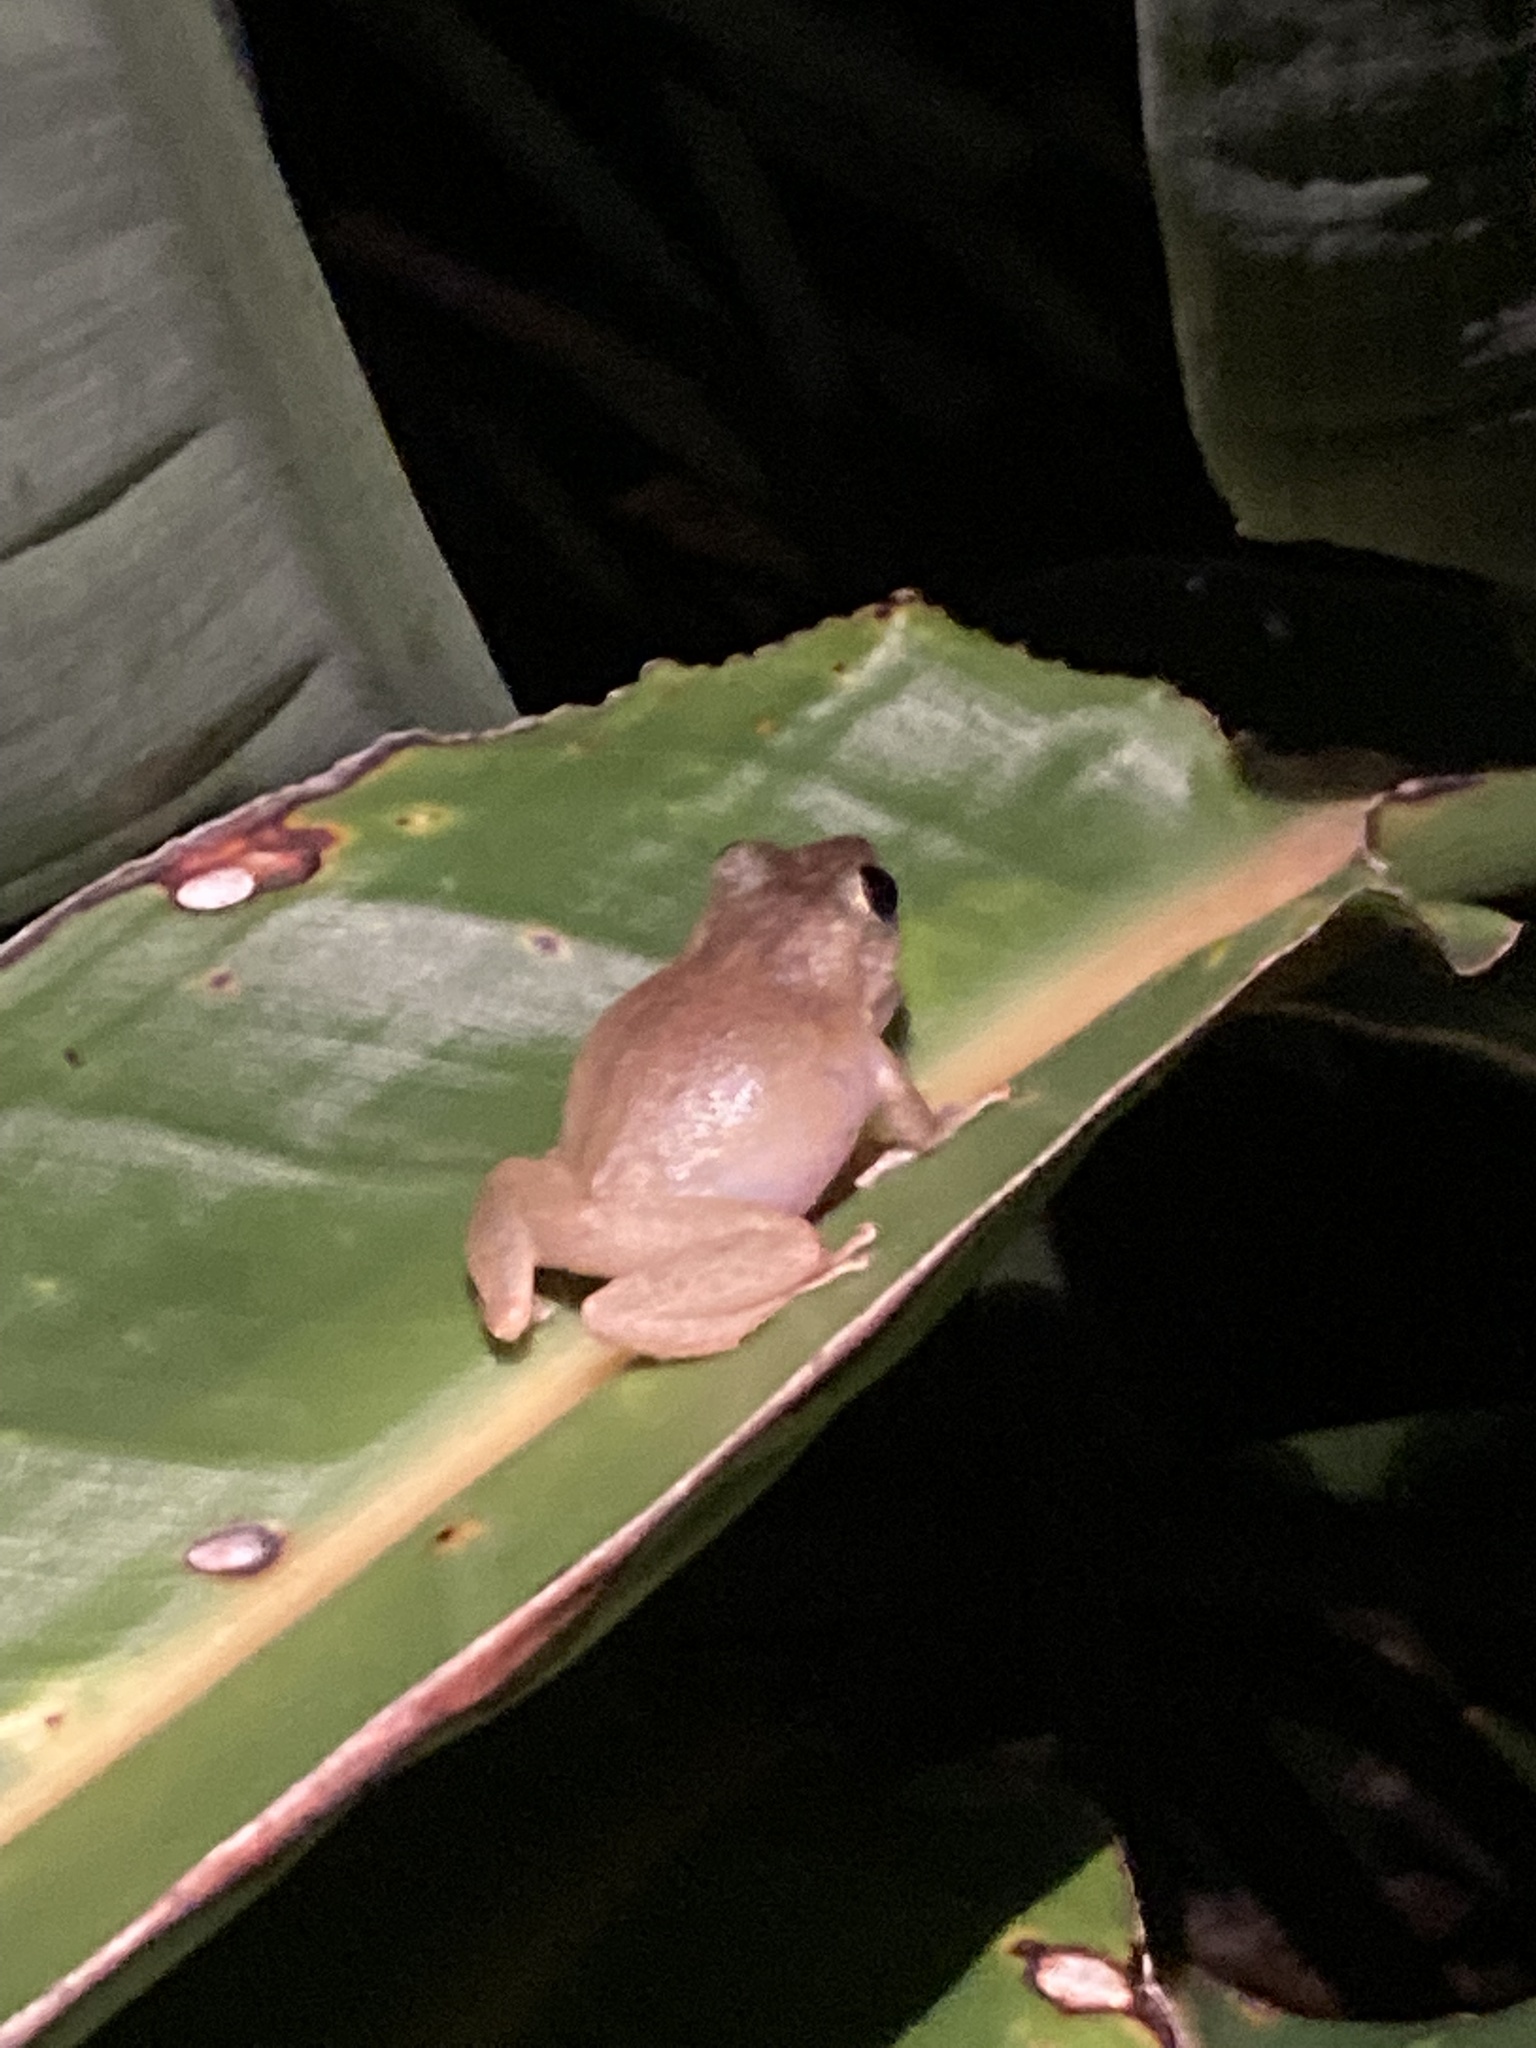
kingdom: Animalia
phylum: Chordata
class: Amphibia
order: Anura
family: Eleutherodactylidae
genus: Eleutherodactylus
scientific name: Eleutherodactylus coqui
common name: Coqui frog
